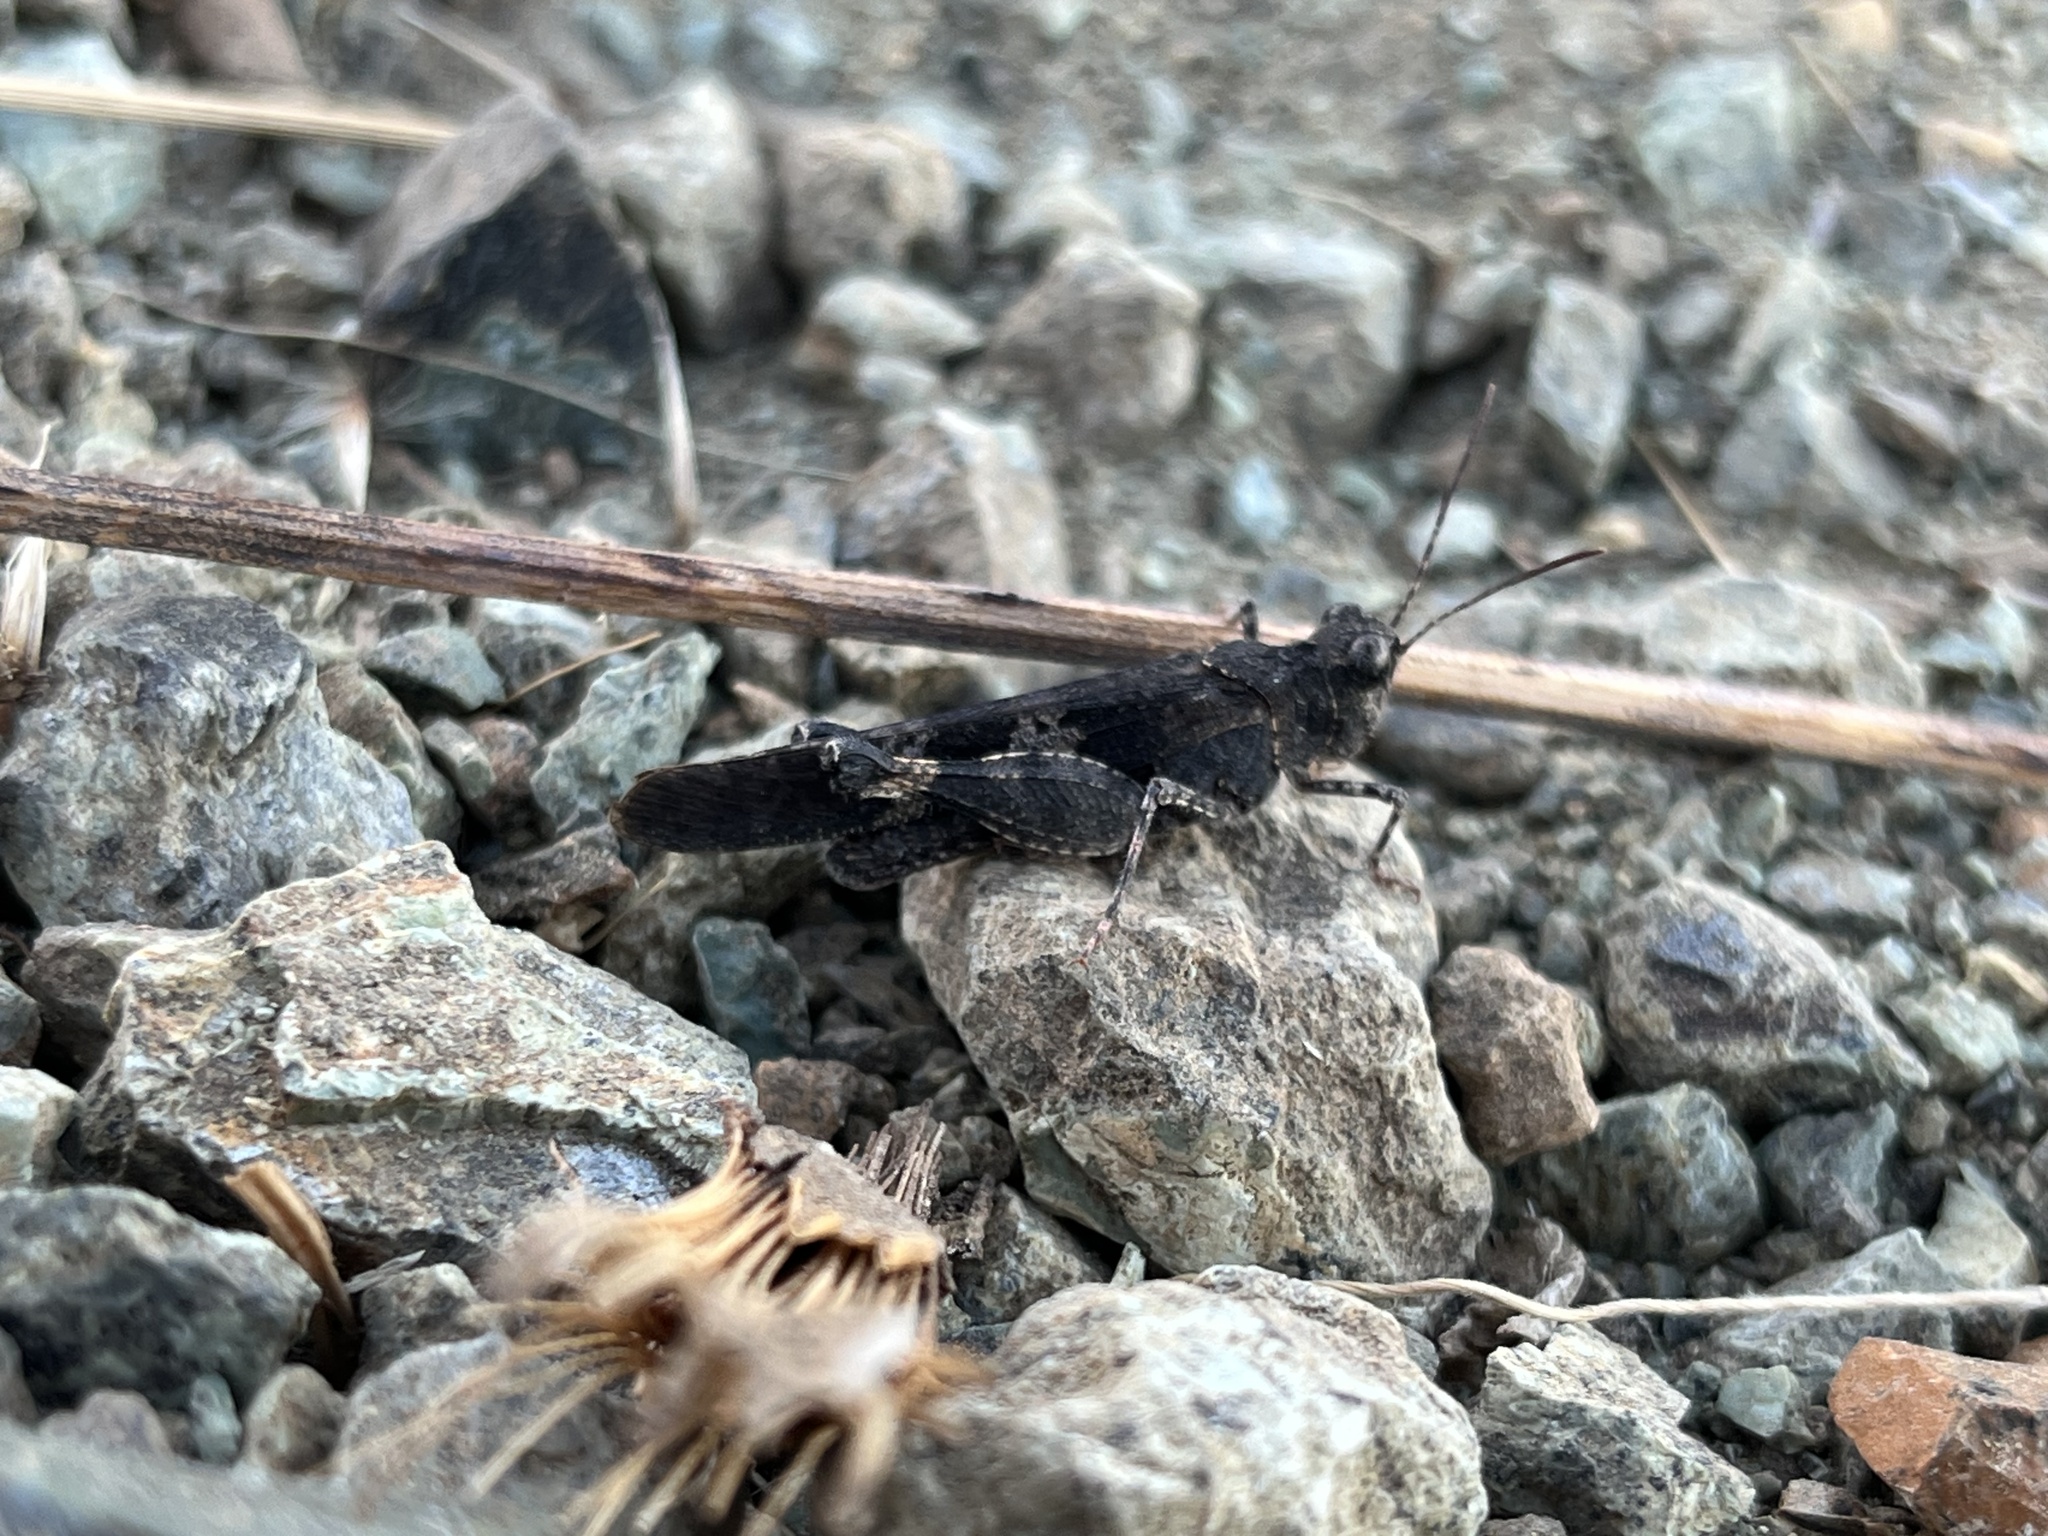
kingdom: Animalia
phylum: Arthropoda
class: Insecta
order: Orthoptera
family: Acrididae
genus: Trimerotropis
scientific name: Trimerotropis fontana
